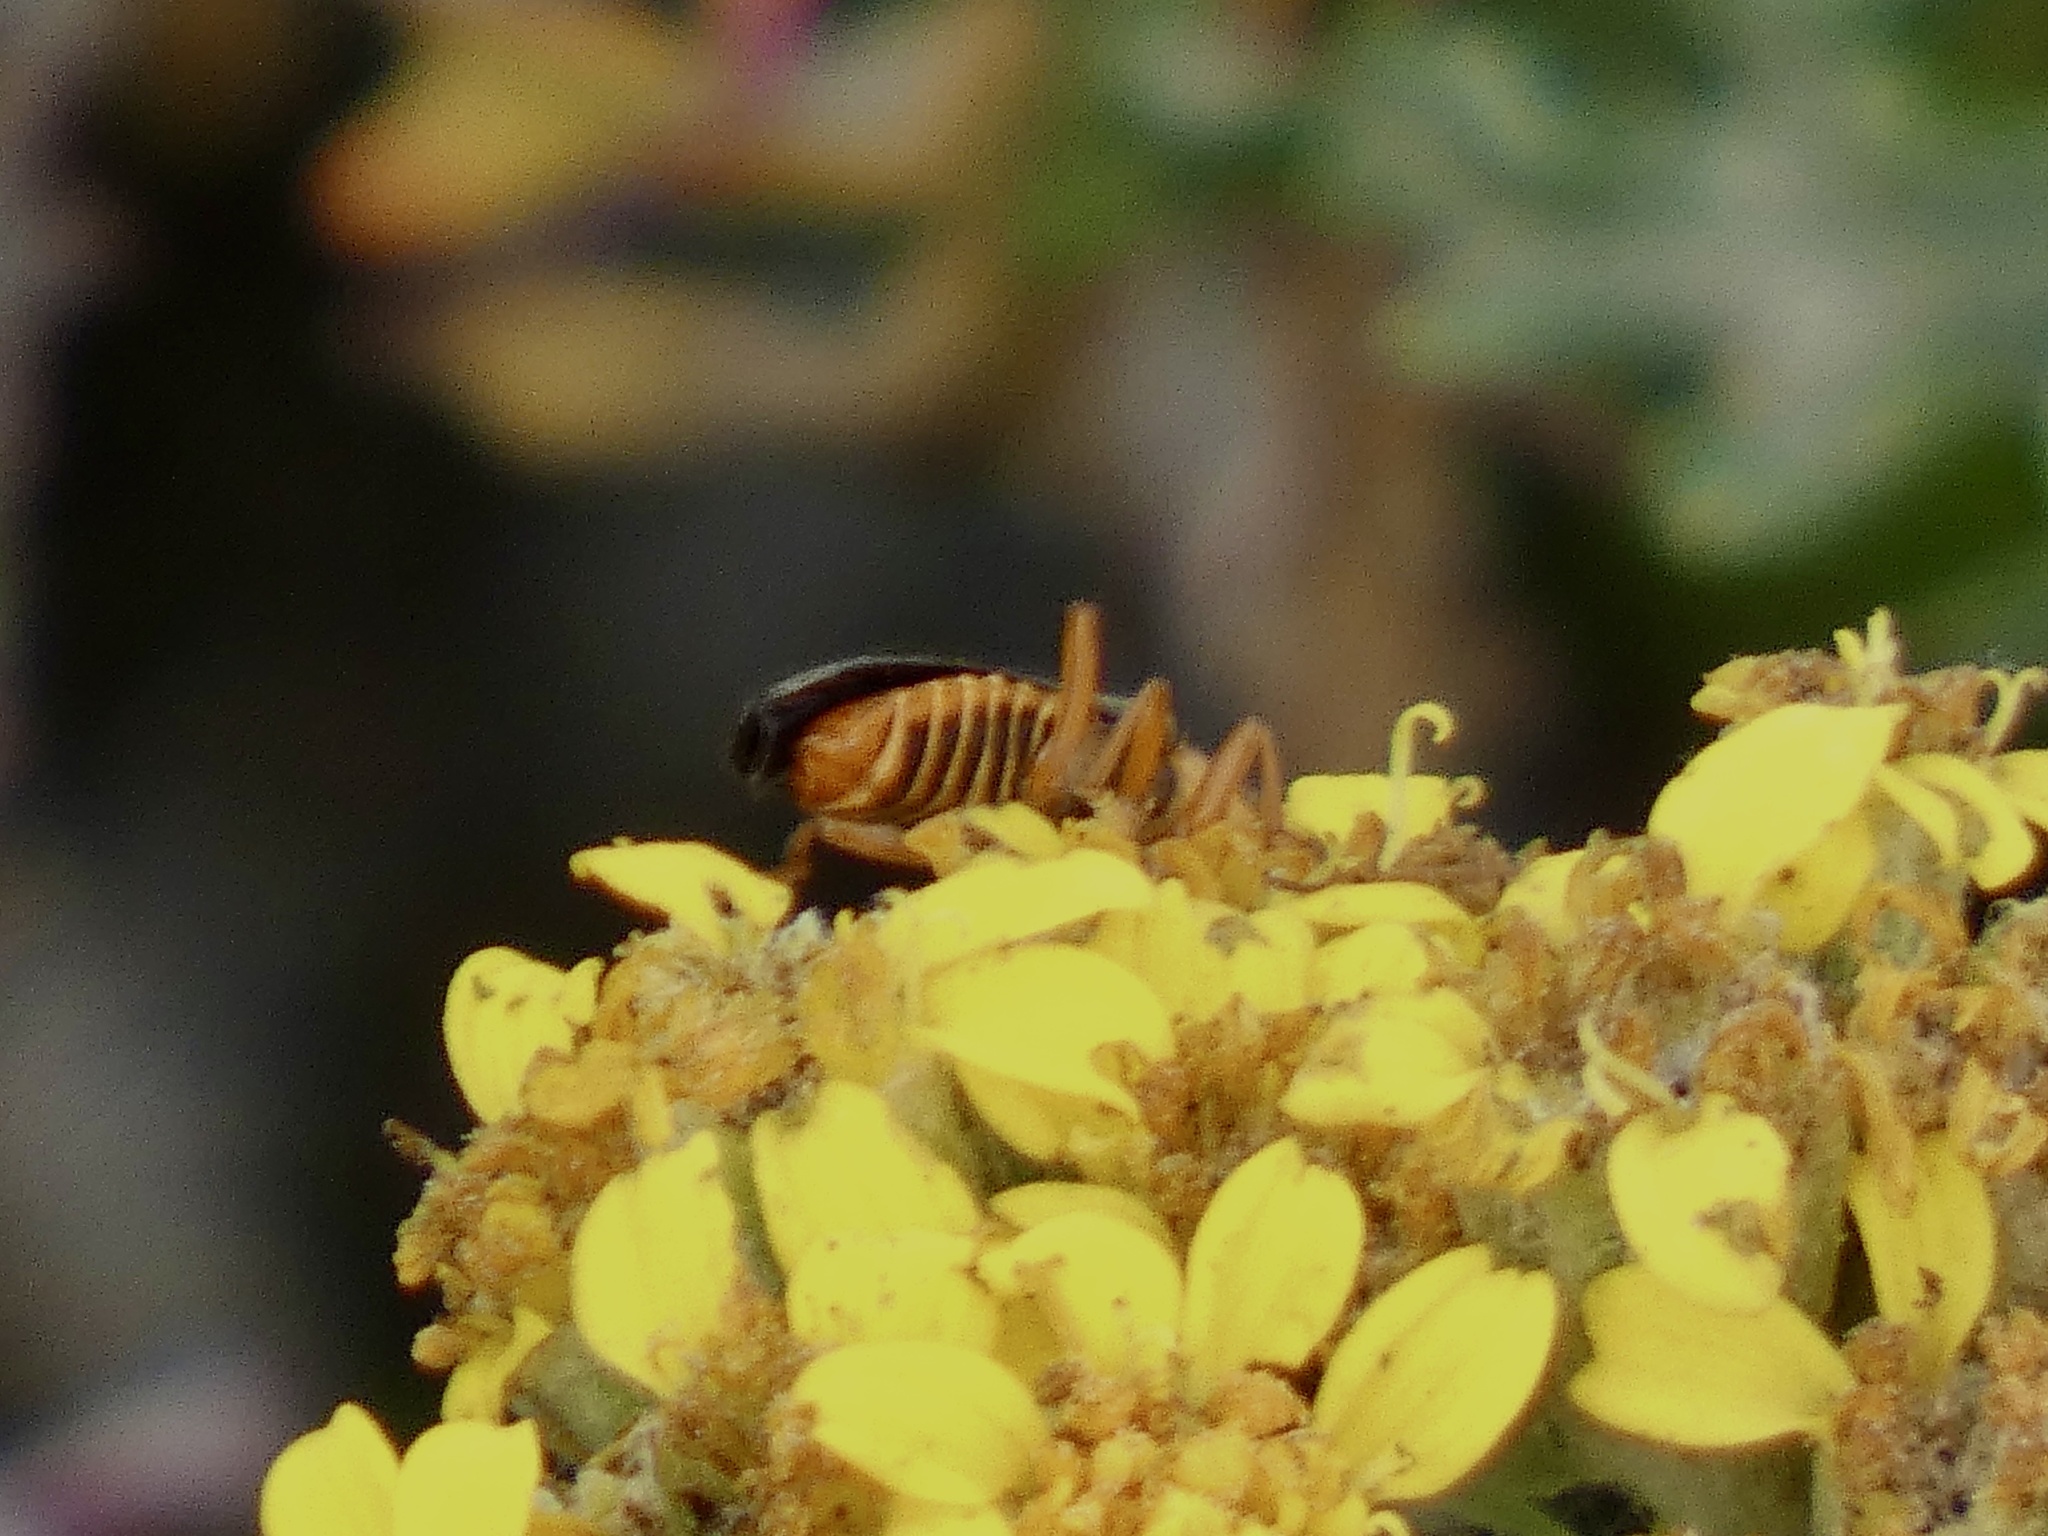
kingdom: Animalia
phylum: Arthropoda
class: Insecta
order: Coleoptera
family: Cantharidae
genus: Cultellunguis
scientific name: Cultellunguis americanus
